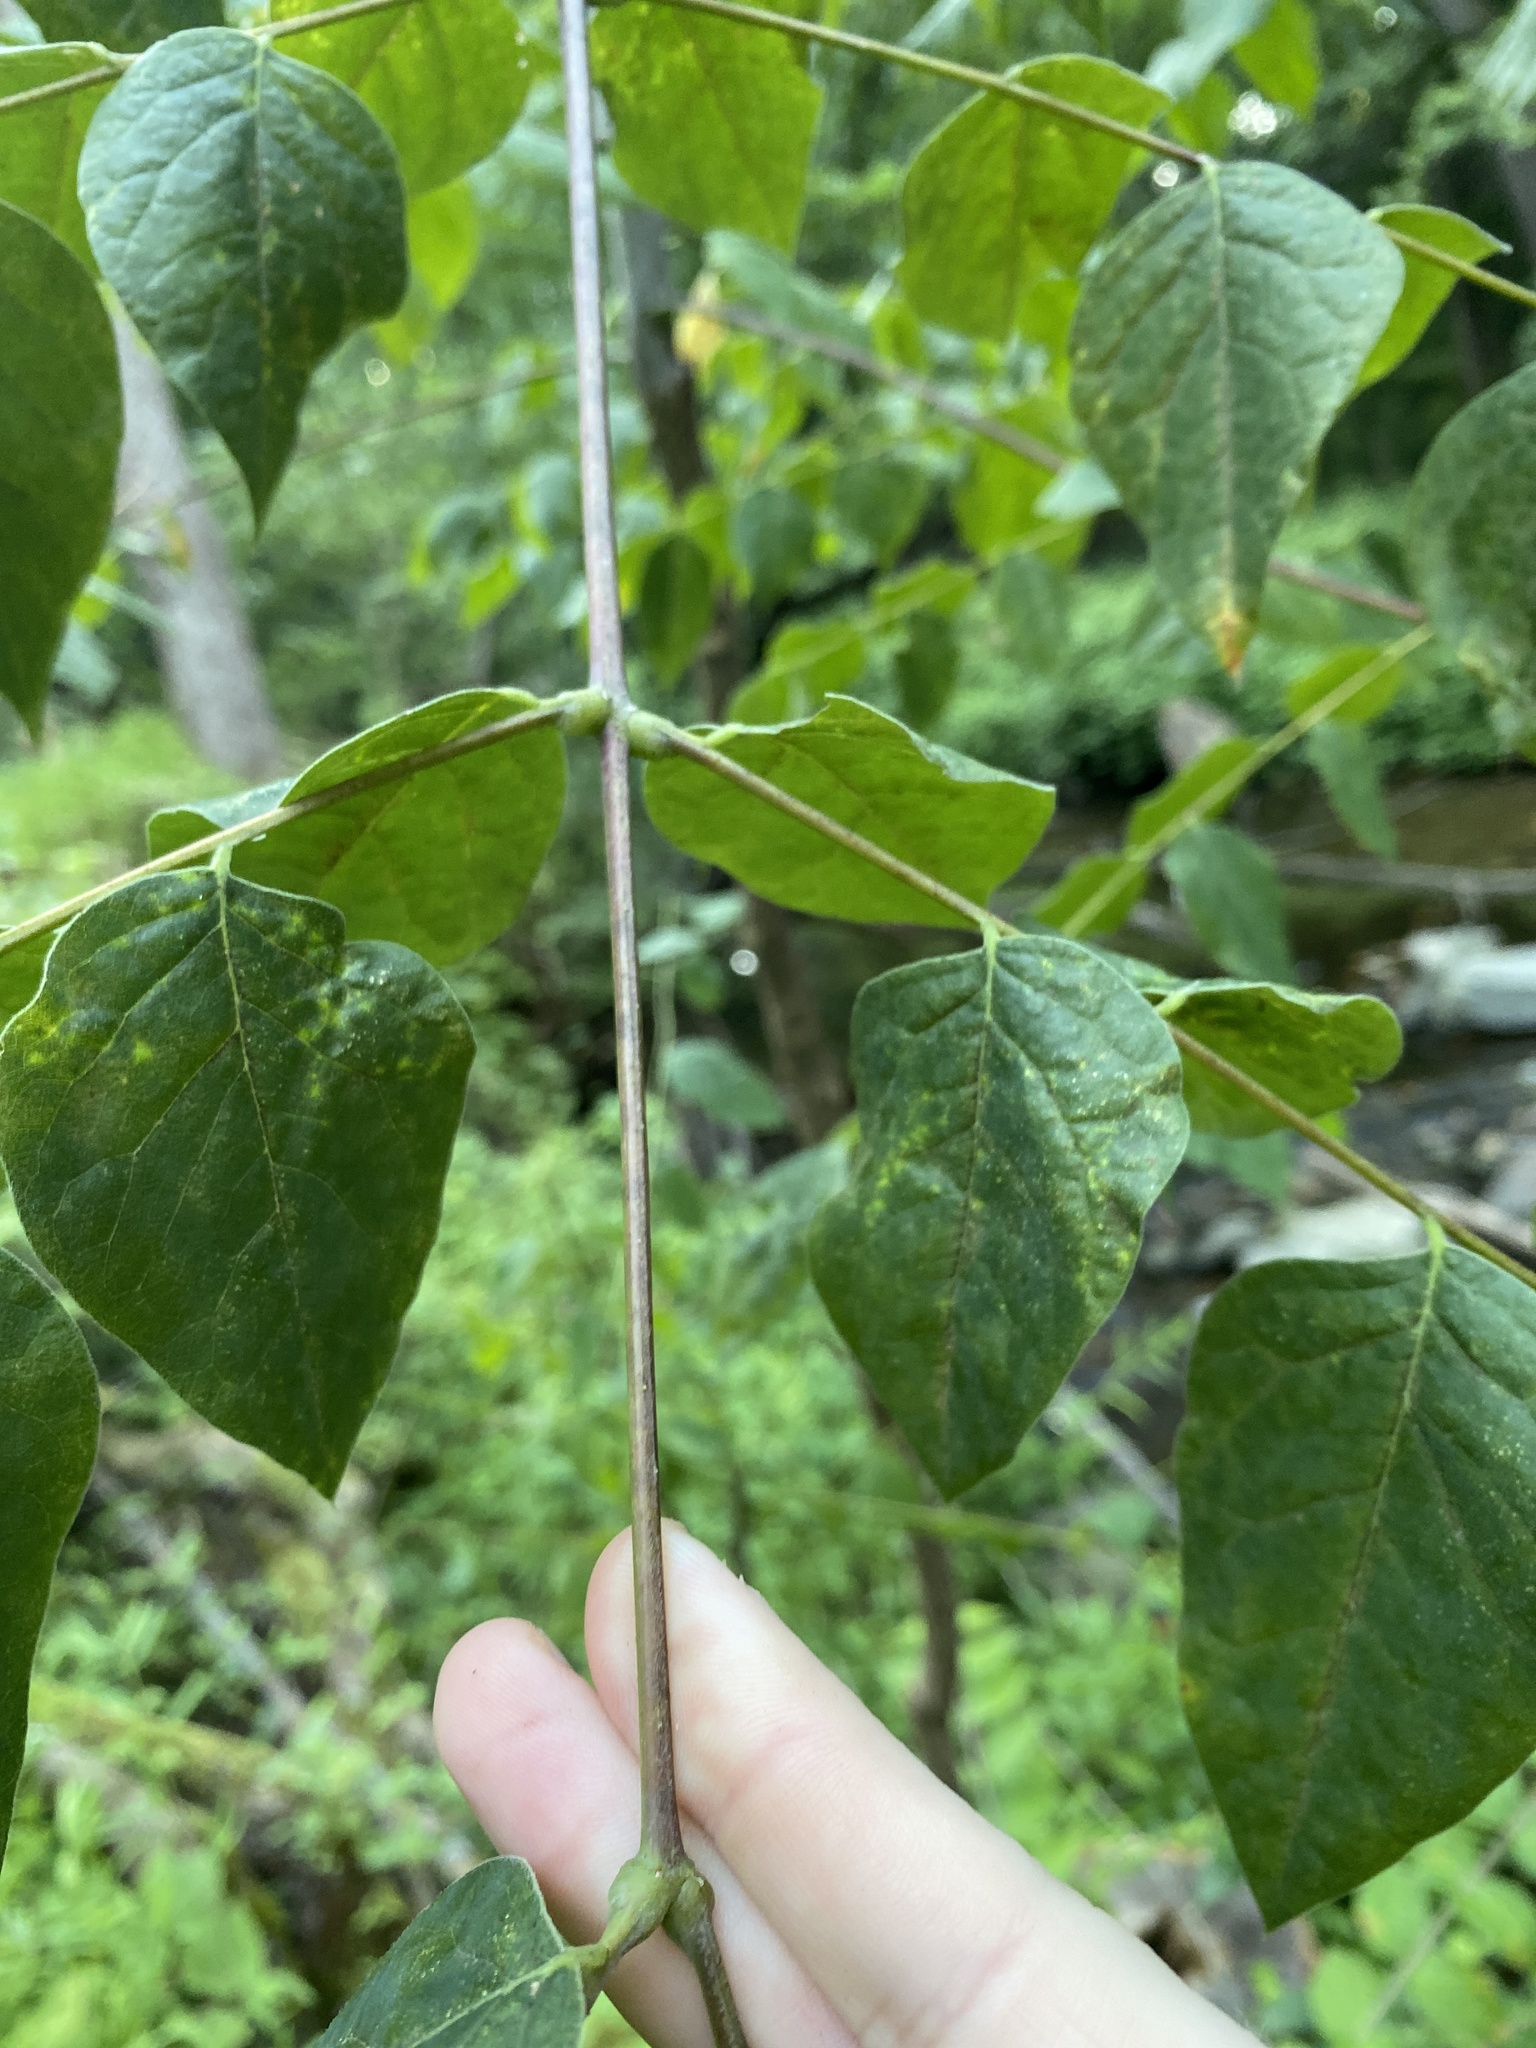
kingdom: Plantae
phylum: Tracheophyta
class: Magnoliopsida
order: Fabales
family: Fabaceae
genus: Gymnocladus
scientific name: Gymnocladus dioicus
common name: Kentucky coffee-tree
